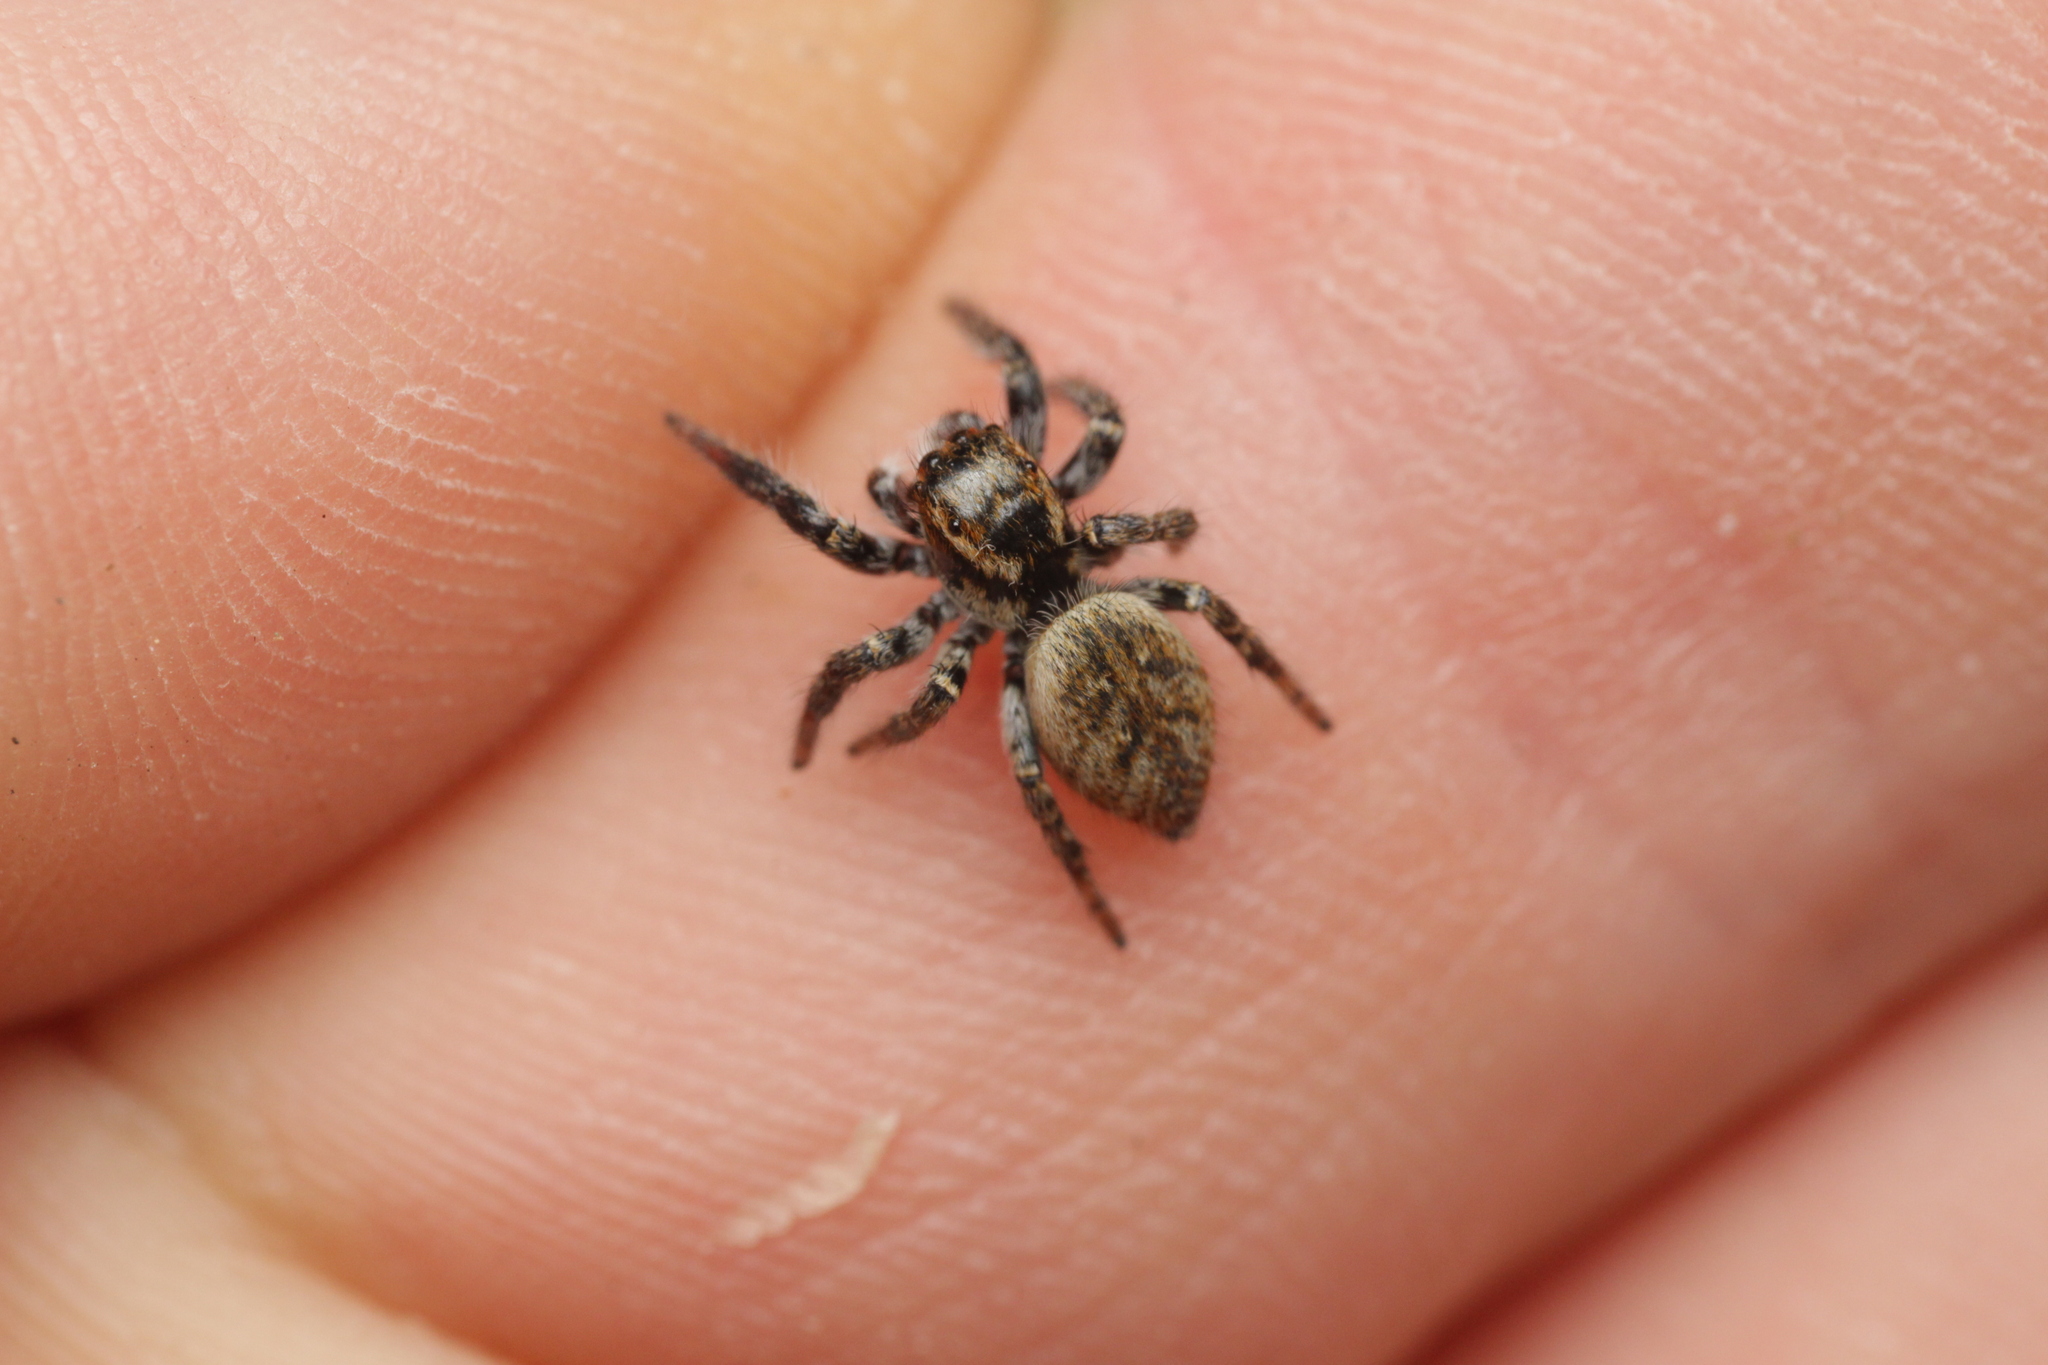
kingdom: Animalia
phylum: Arthropoda
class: Arachnida
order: Araneae
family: Salticidae
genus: Carrhotus
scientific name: Carrhotus xanthogramma
